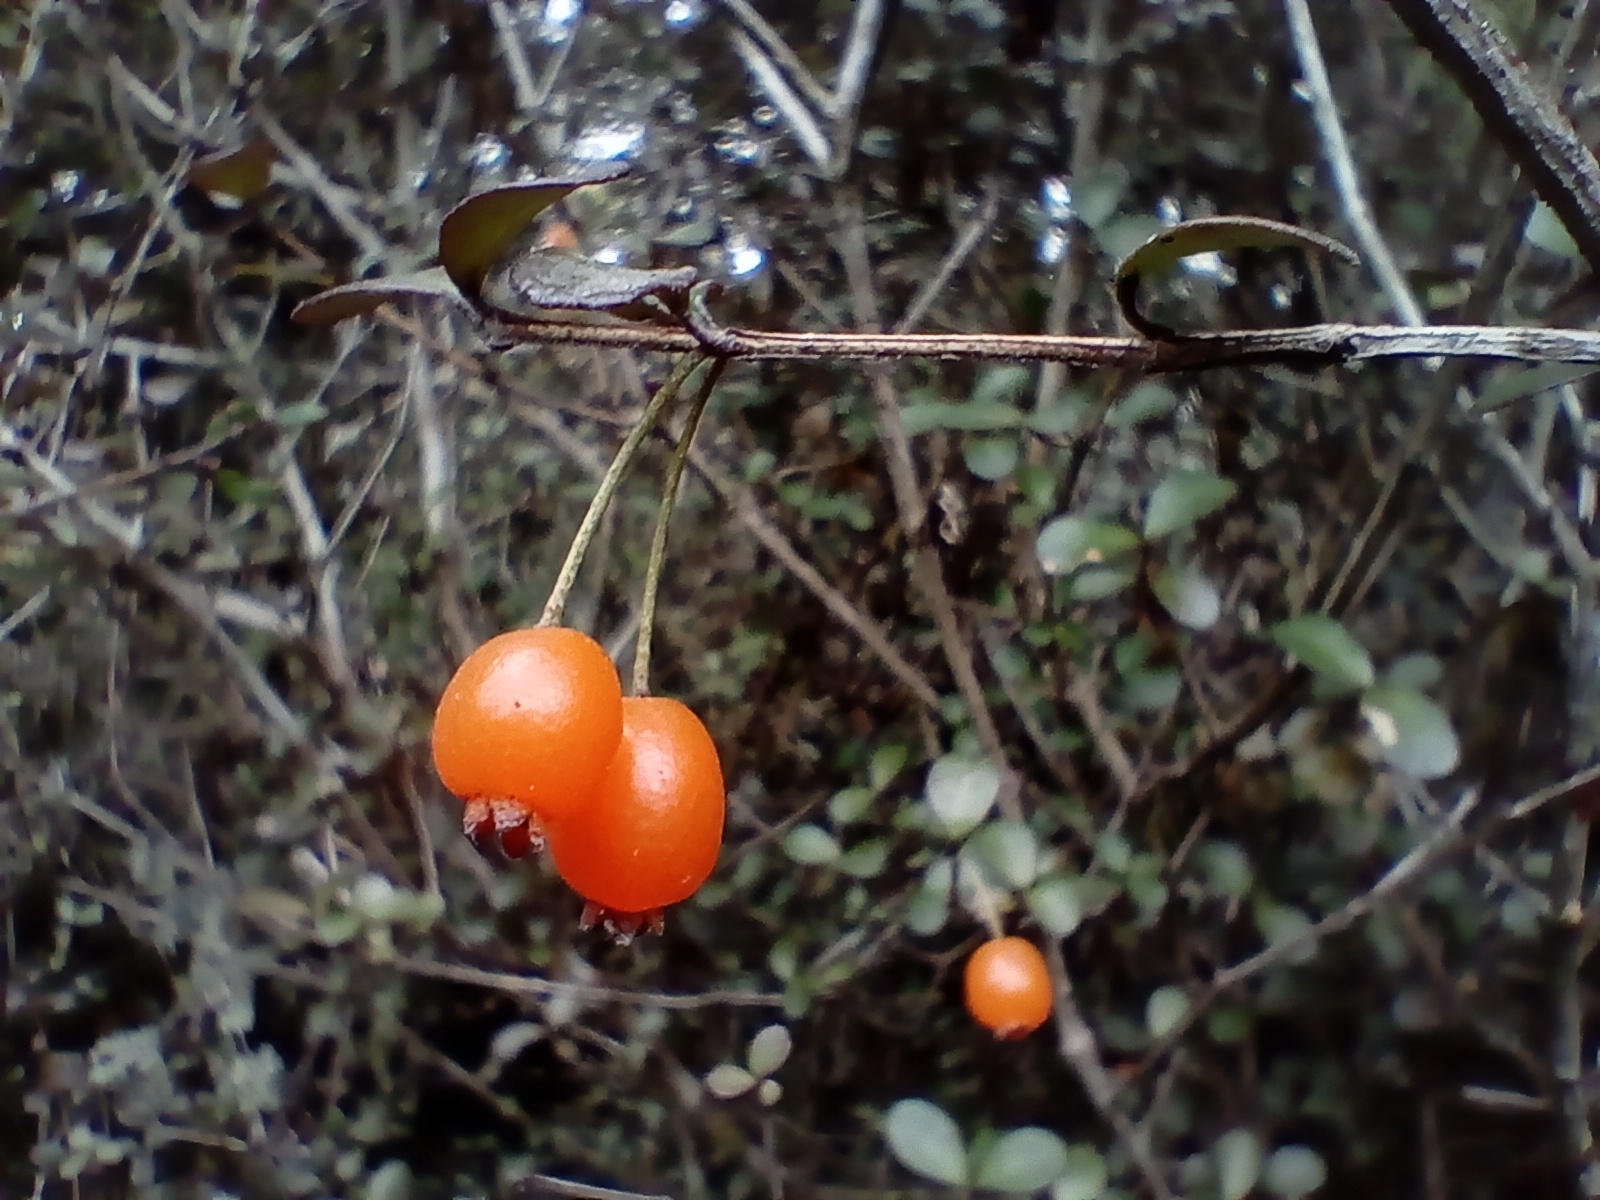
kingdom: Plantae
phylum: Tracheophyta
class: Magnoliopsida
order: Myrtales
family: Myrtaceae
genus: Neomyrtus
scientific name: Neomyrtus pedunculata
